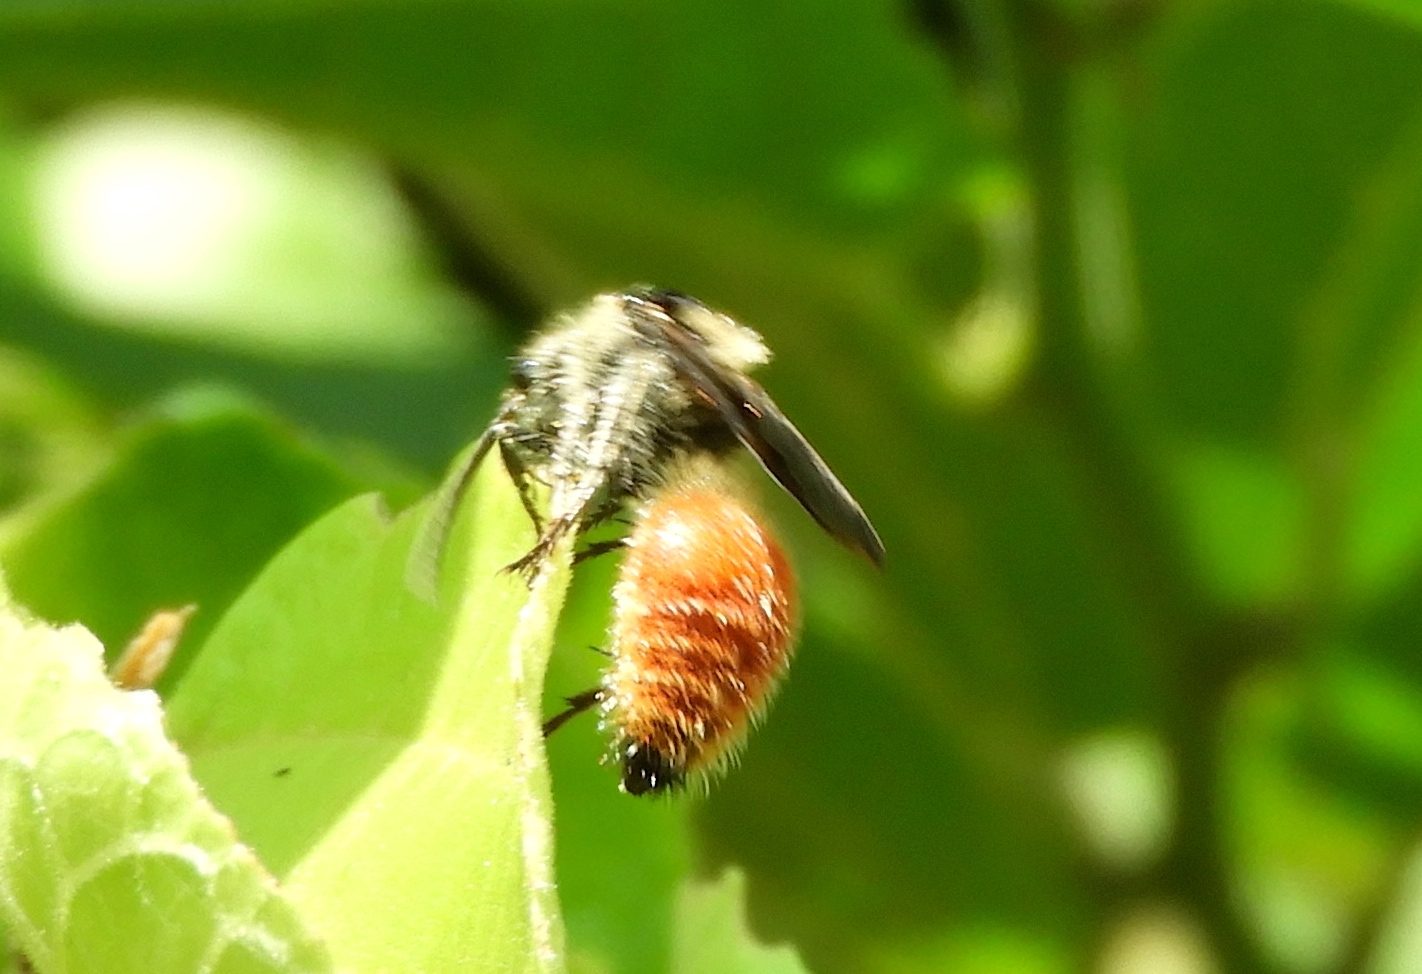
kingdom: Animalia
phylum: Arthropoda
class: Insecta
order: Hymenoptera
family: Mutillidae
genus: Dasymutilla
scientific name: Dasymutilla
